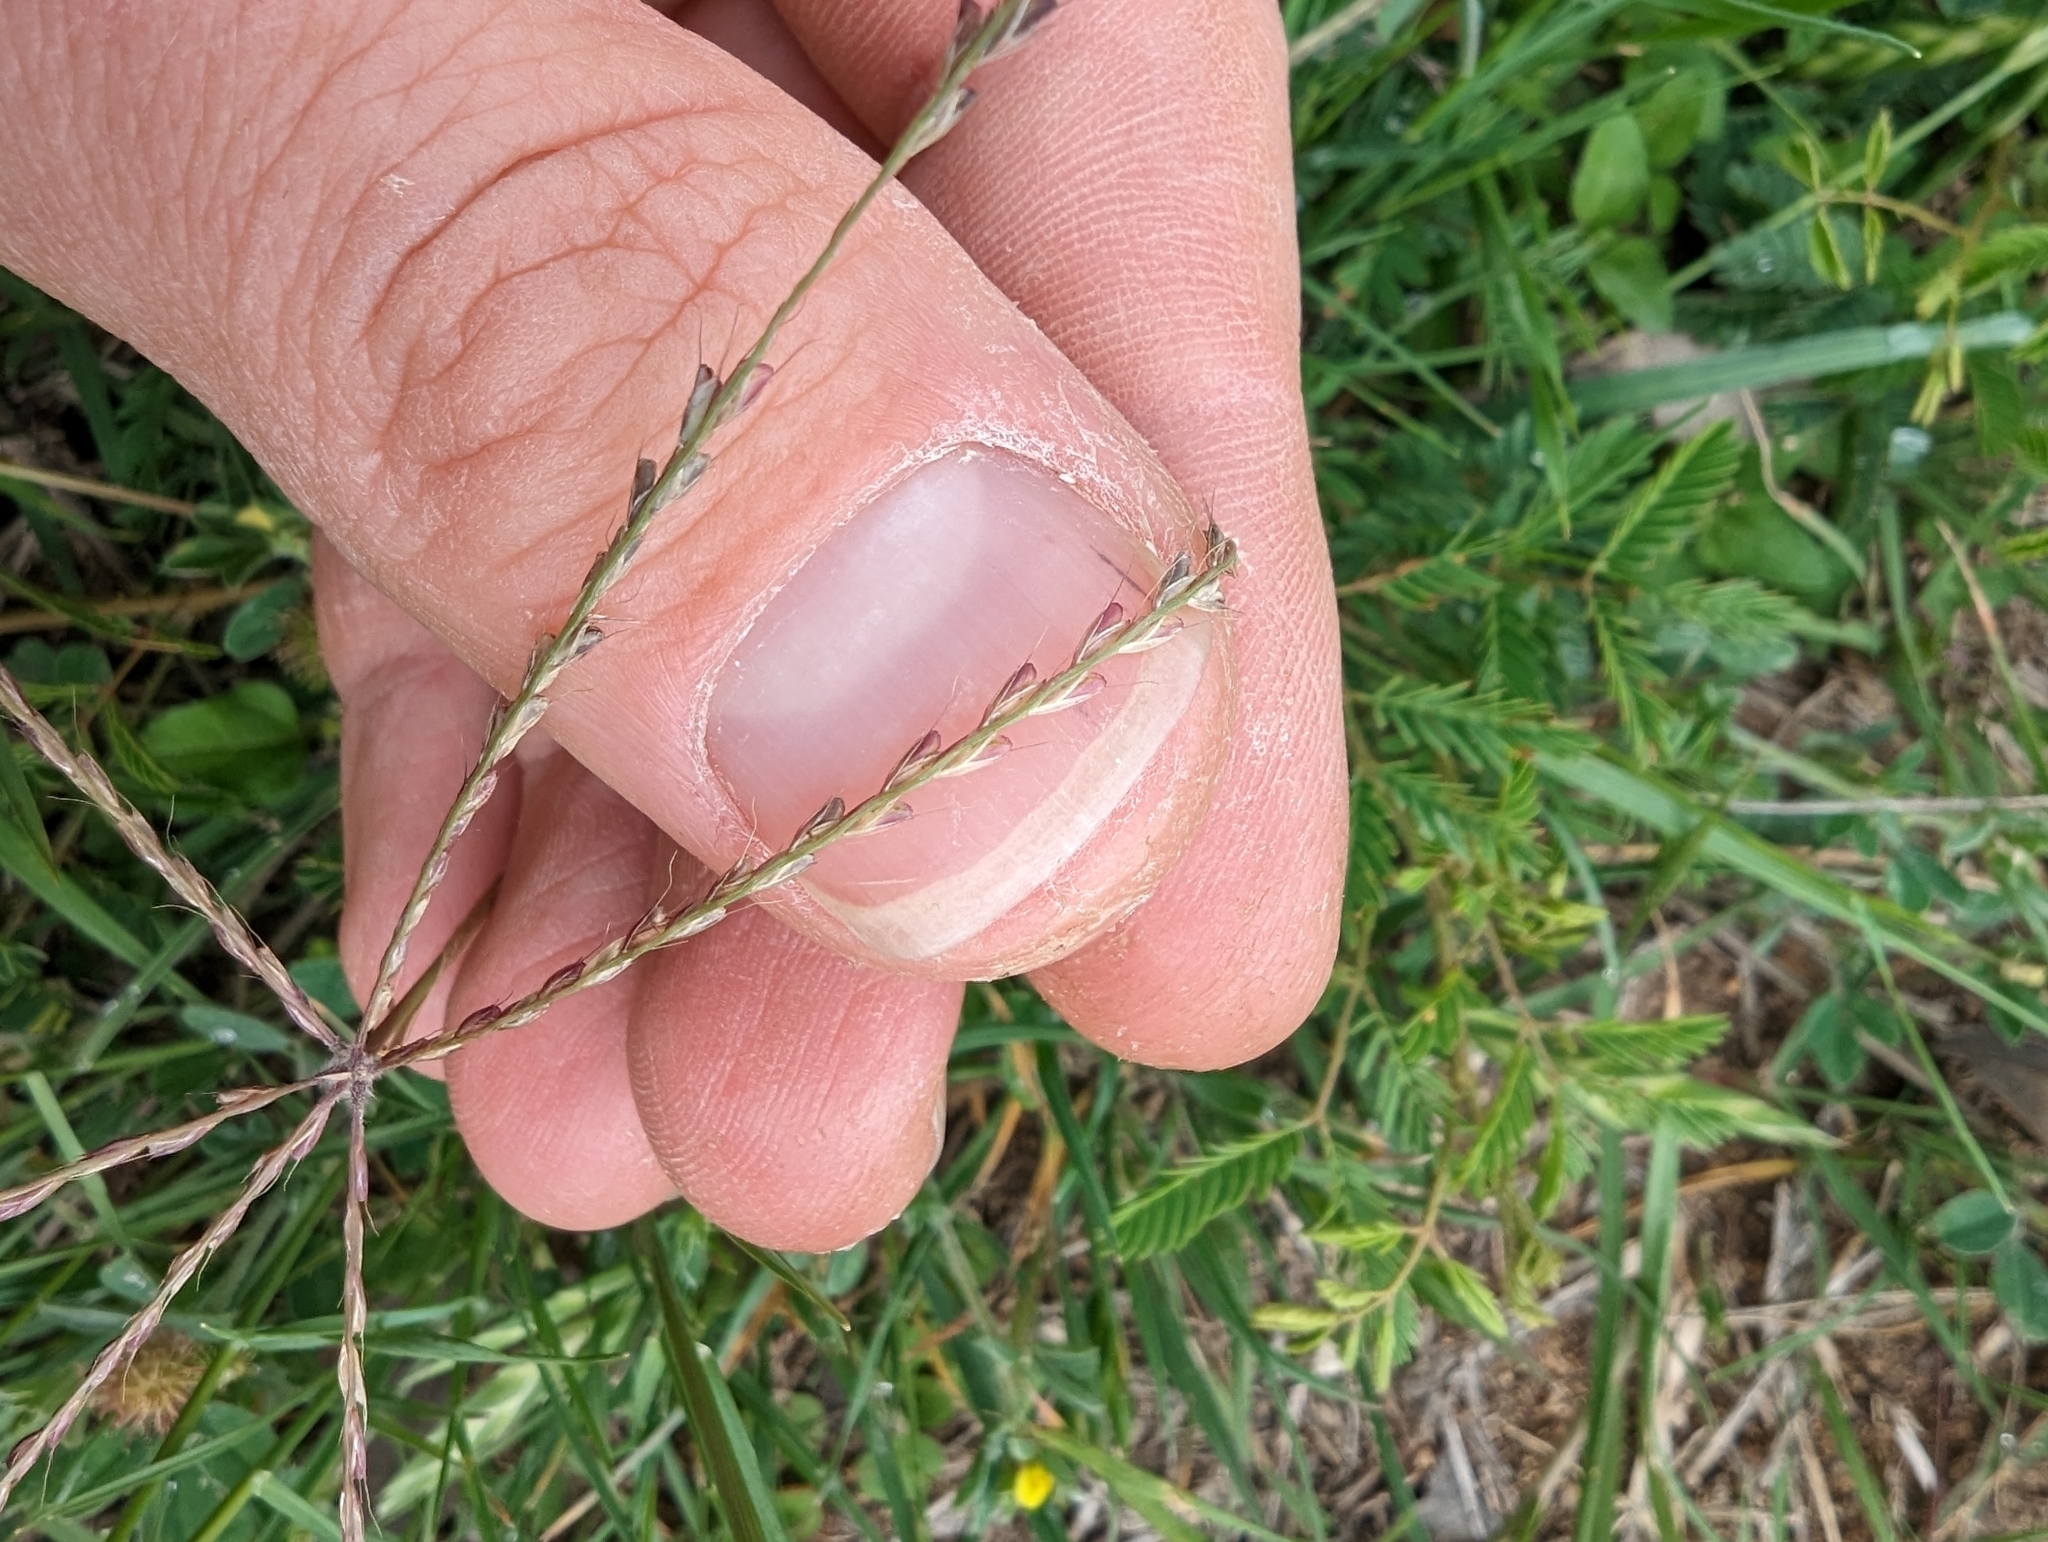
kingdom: Plantae
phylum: Tracheophyta
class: Liliopsida
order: Poales
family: Poaceae
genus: Chloris
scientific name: Chloris andropogonoides
